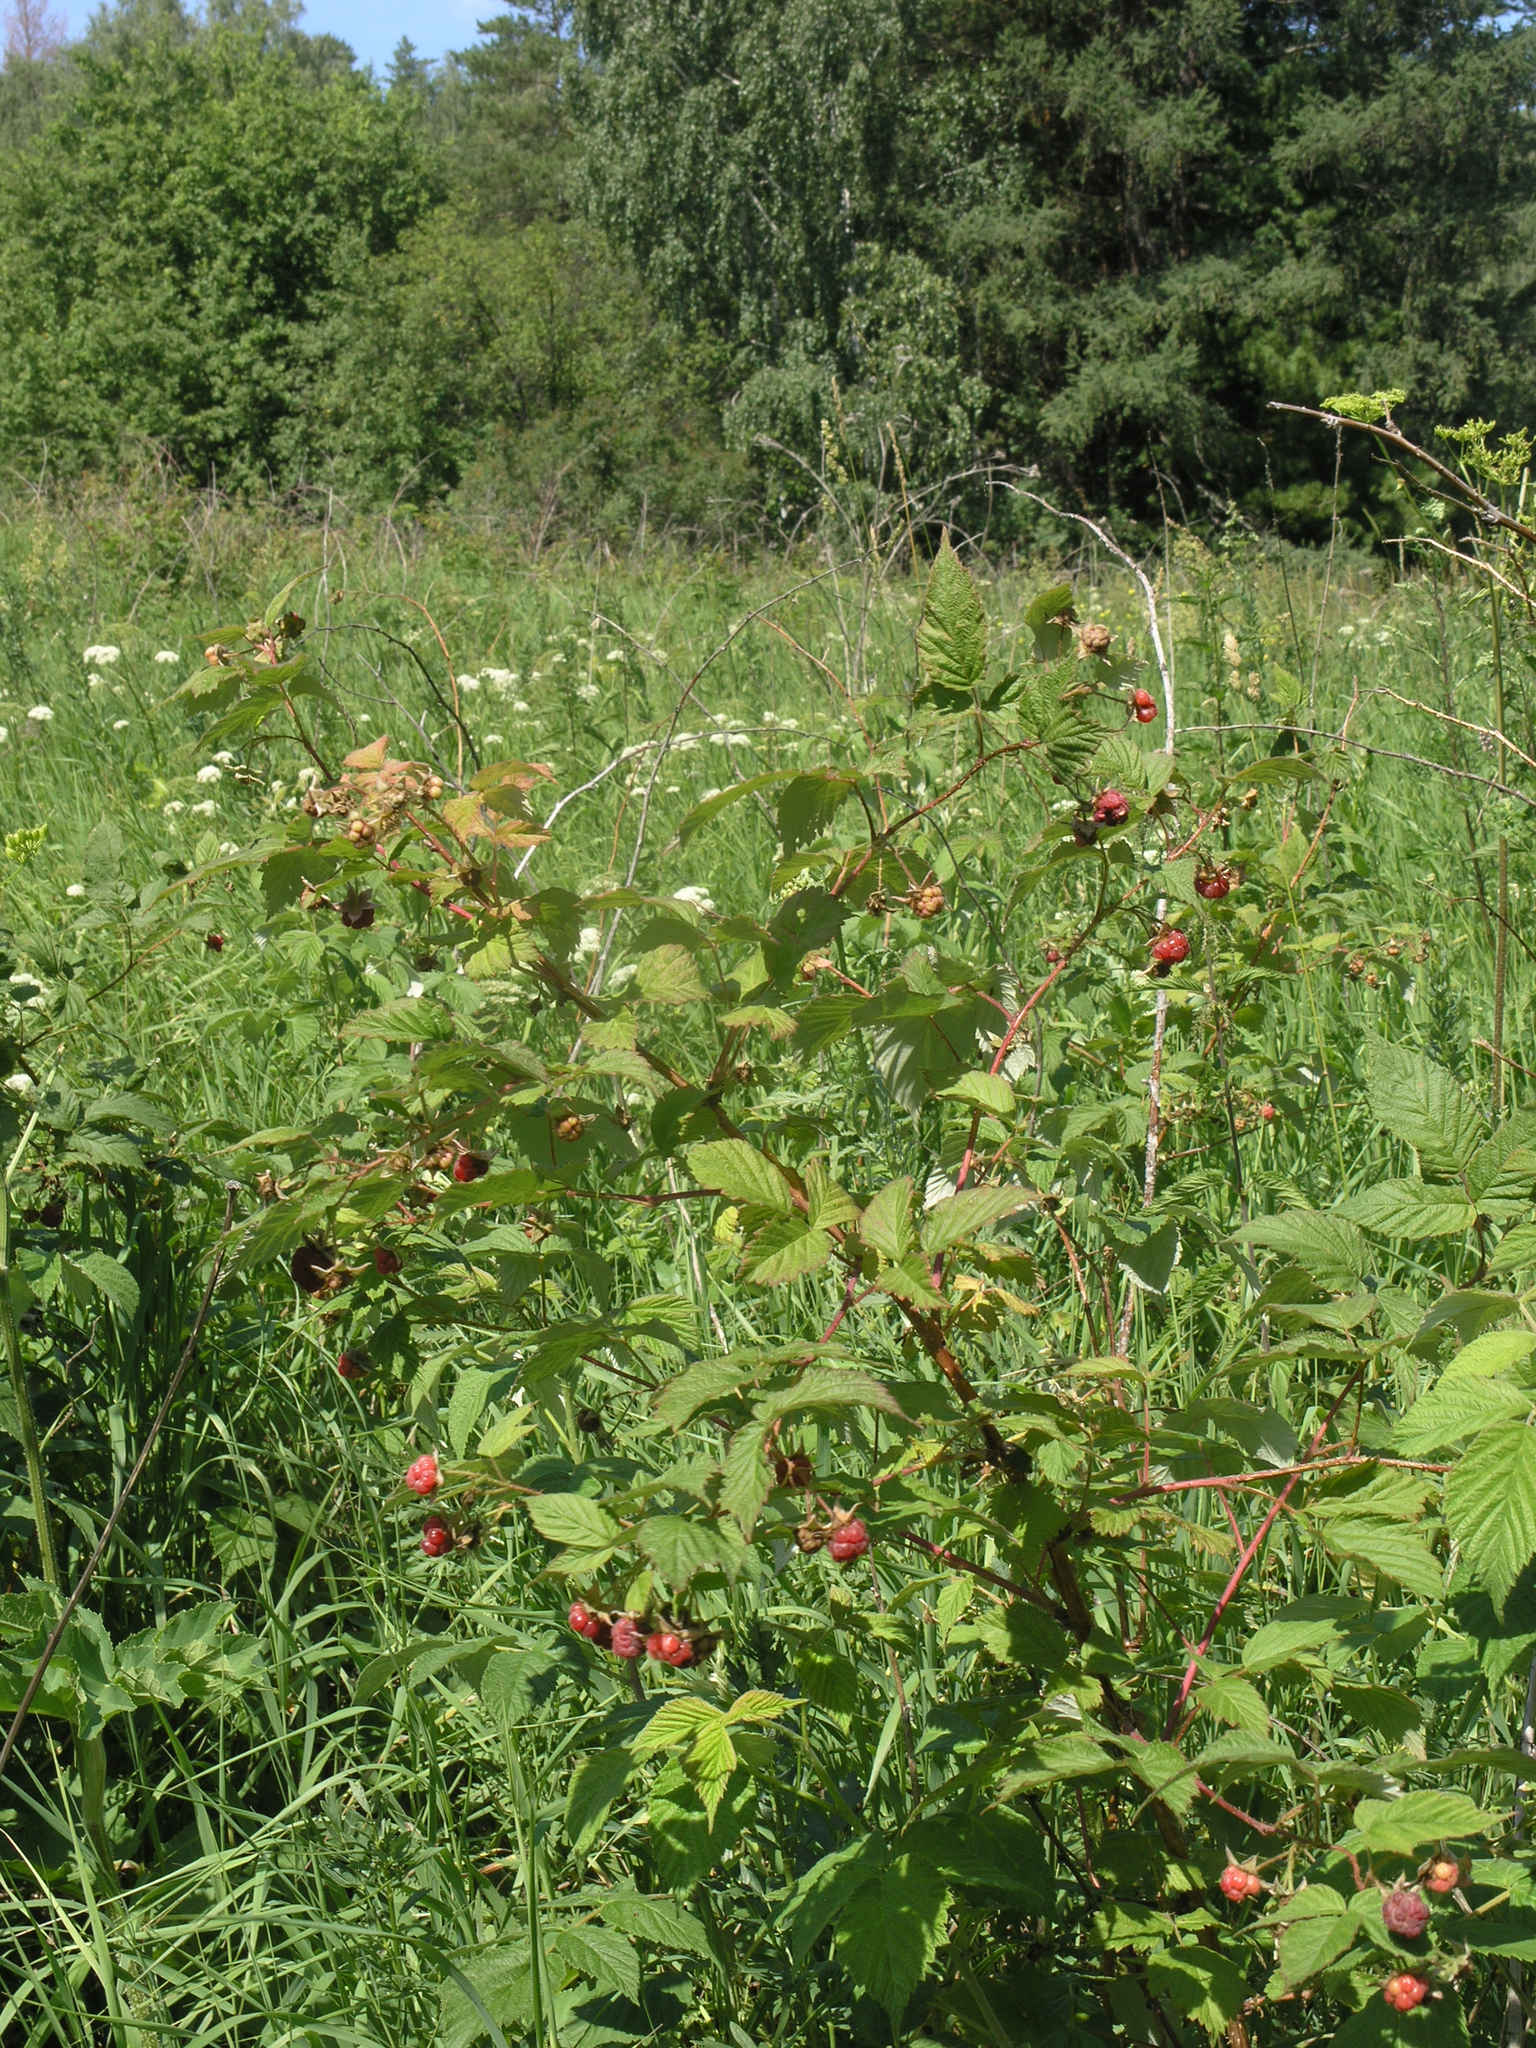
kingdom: Plantae
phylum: Tracheophyta
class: Magnoliopsida
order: Rosales
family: Rosaceae
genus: Rubus
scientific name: Rubus idaeus
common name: Raspberry
